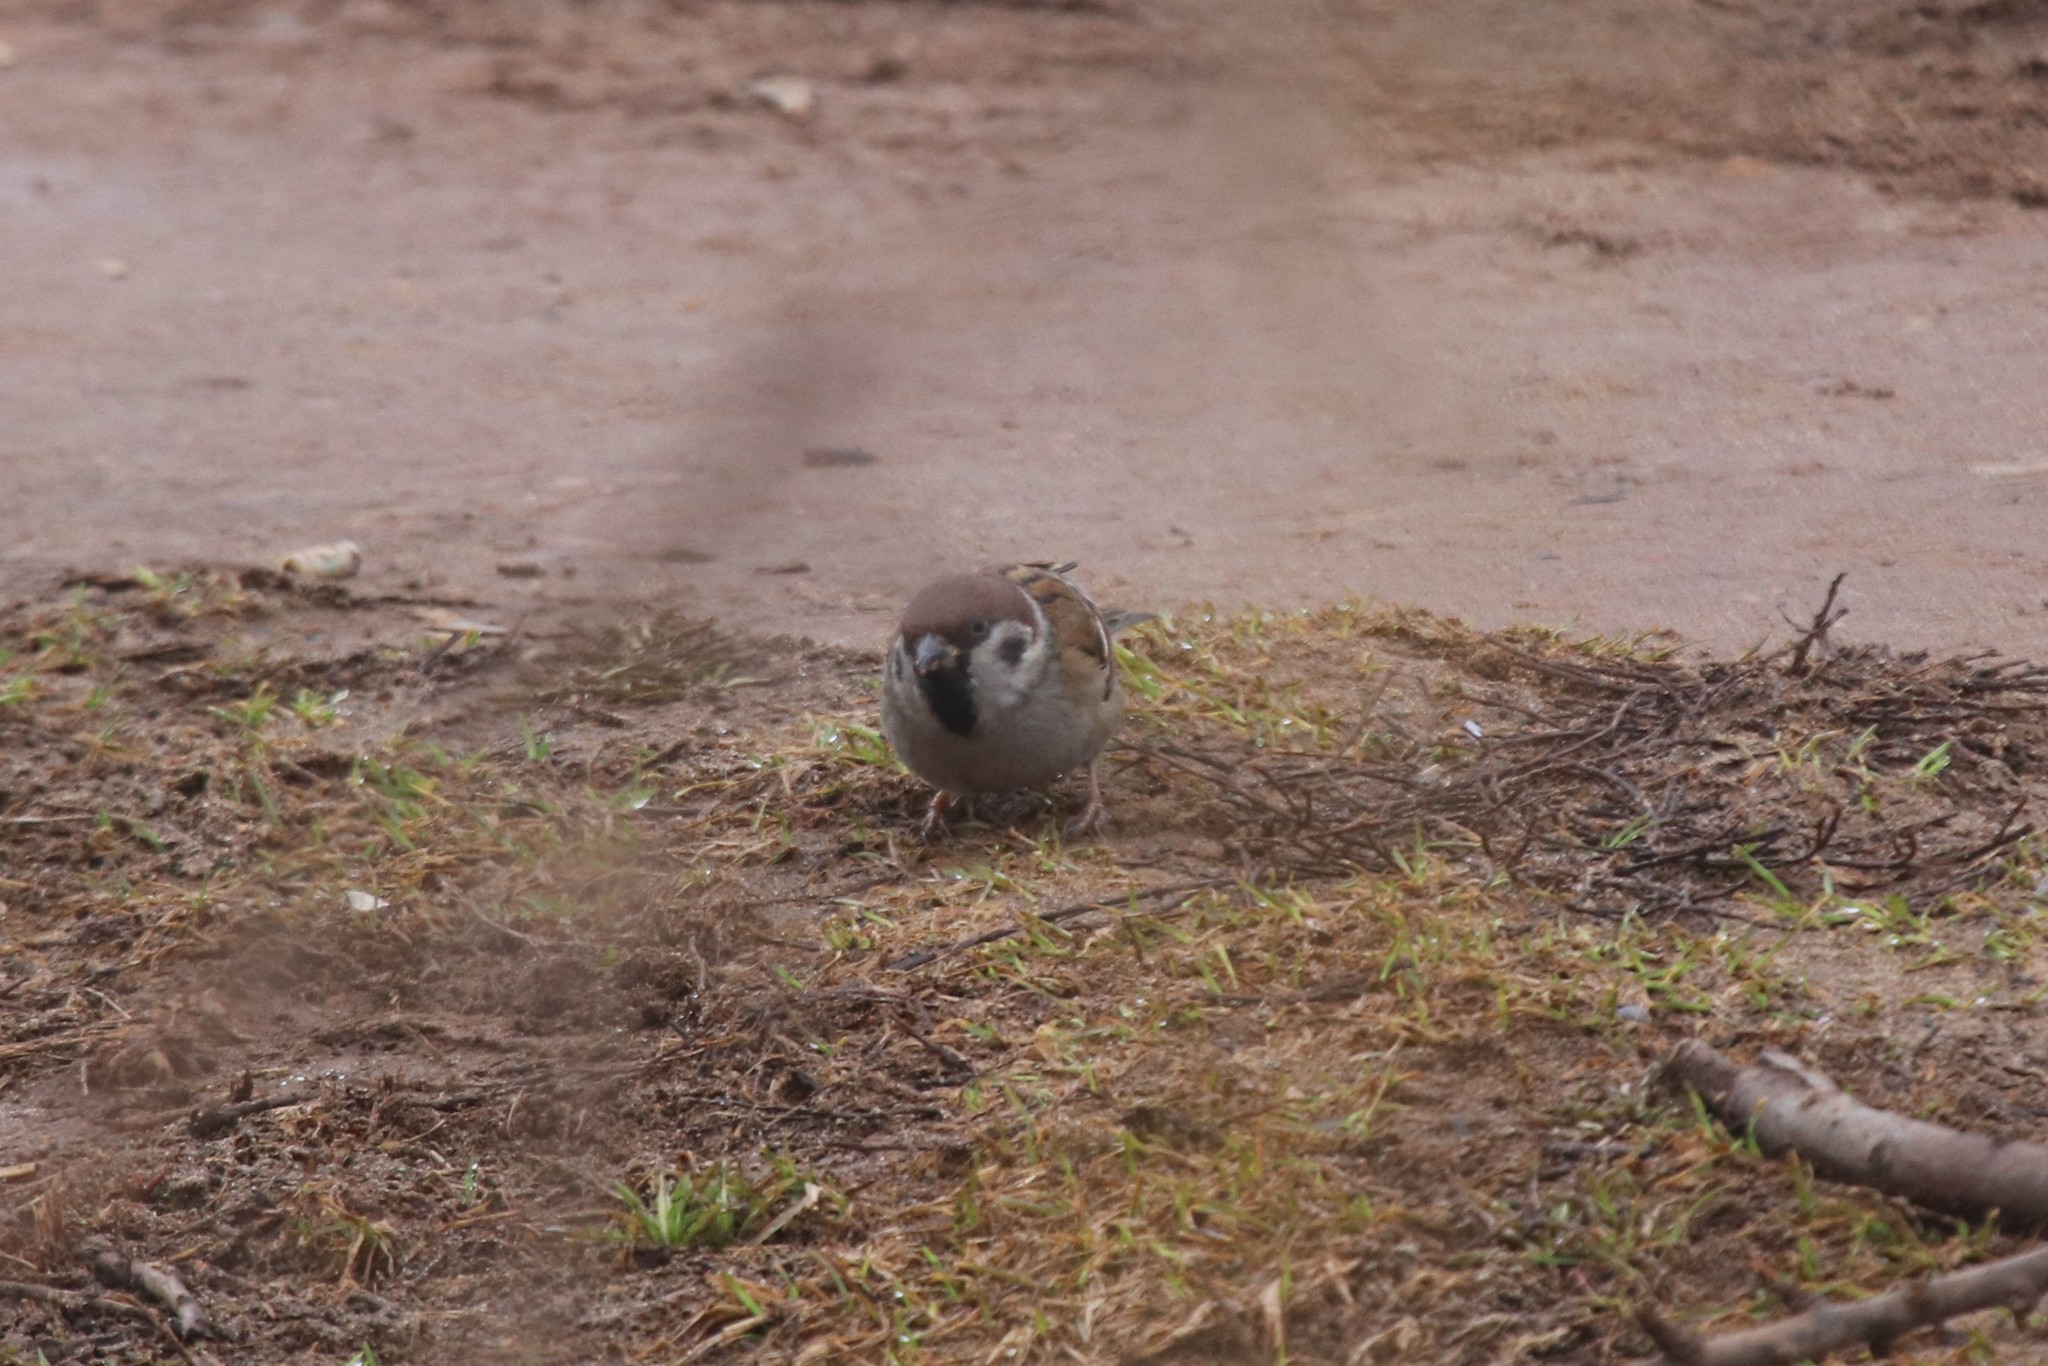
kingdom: Animalia
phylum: Chordata
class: Aves
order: Passeriformes
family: Passeridae
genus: Passer
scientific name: Passer montanus
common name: Eurasian tree sparrow
